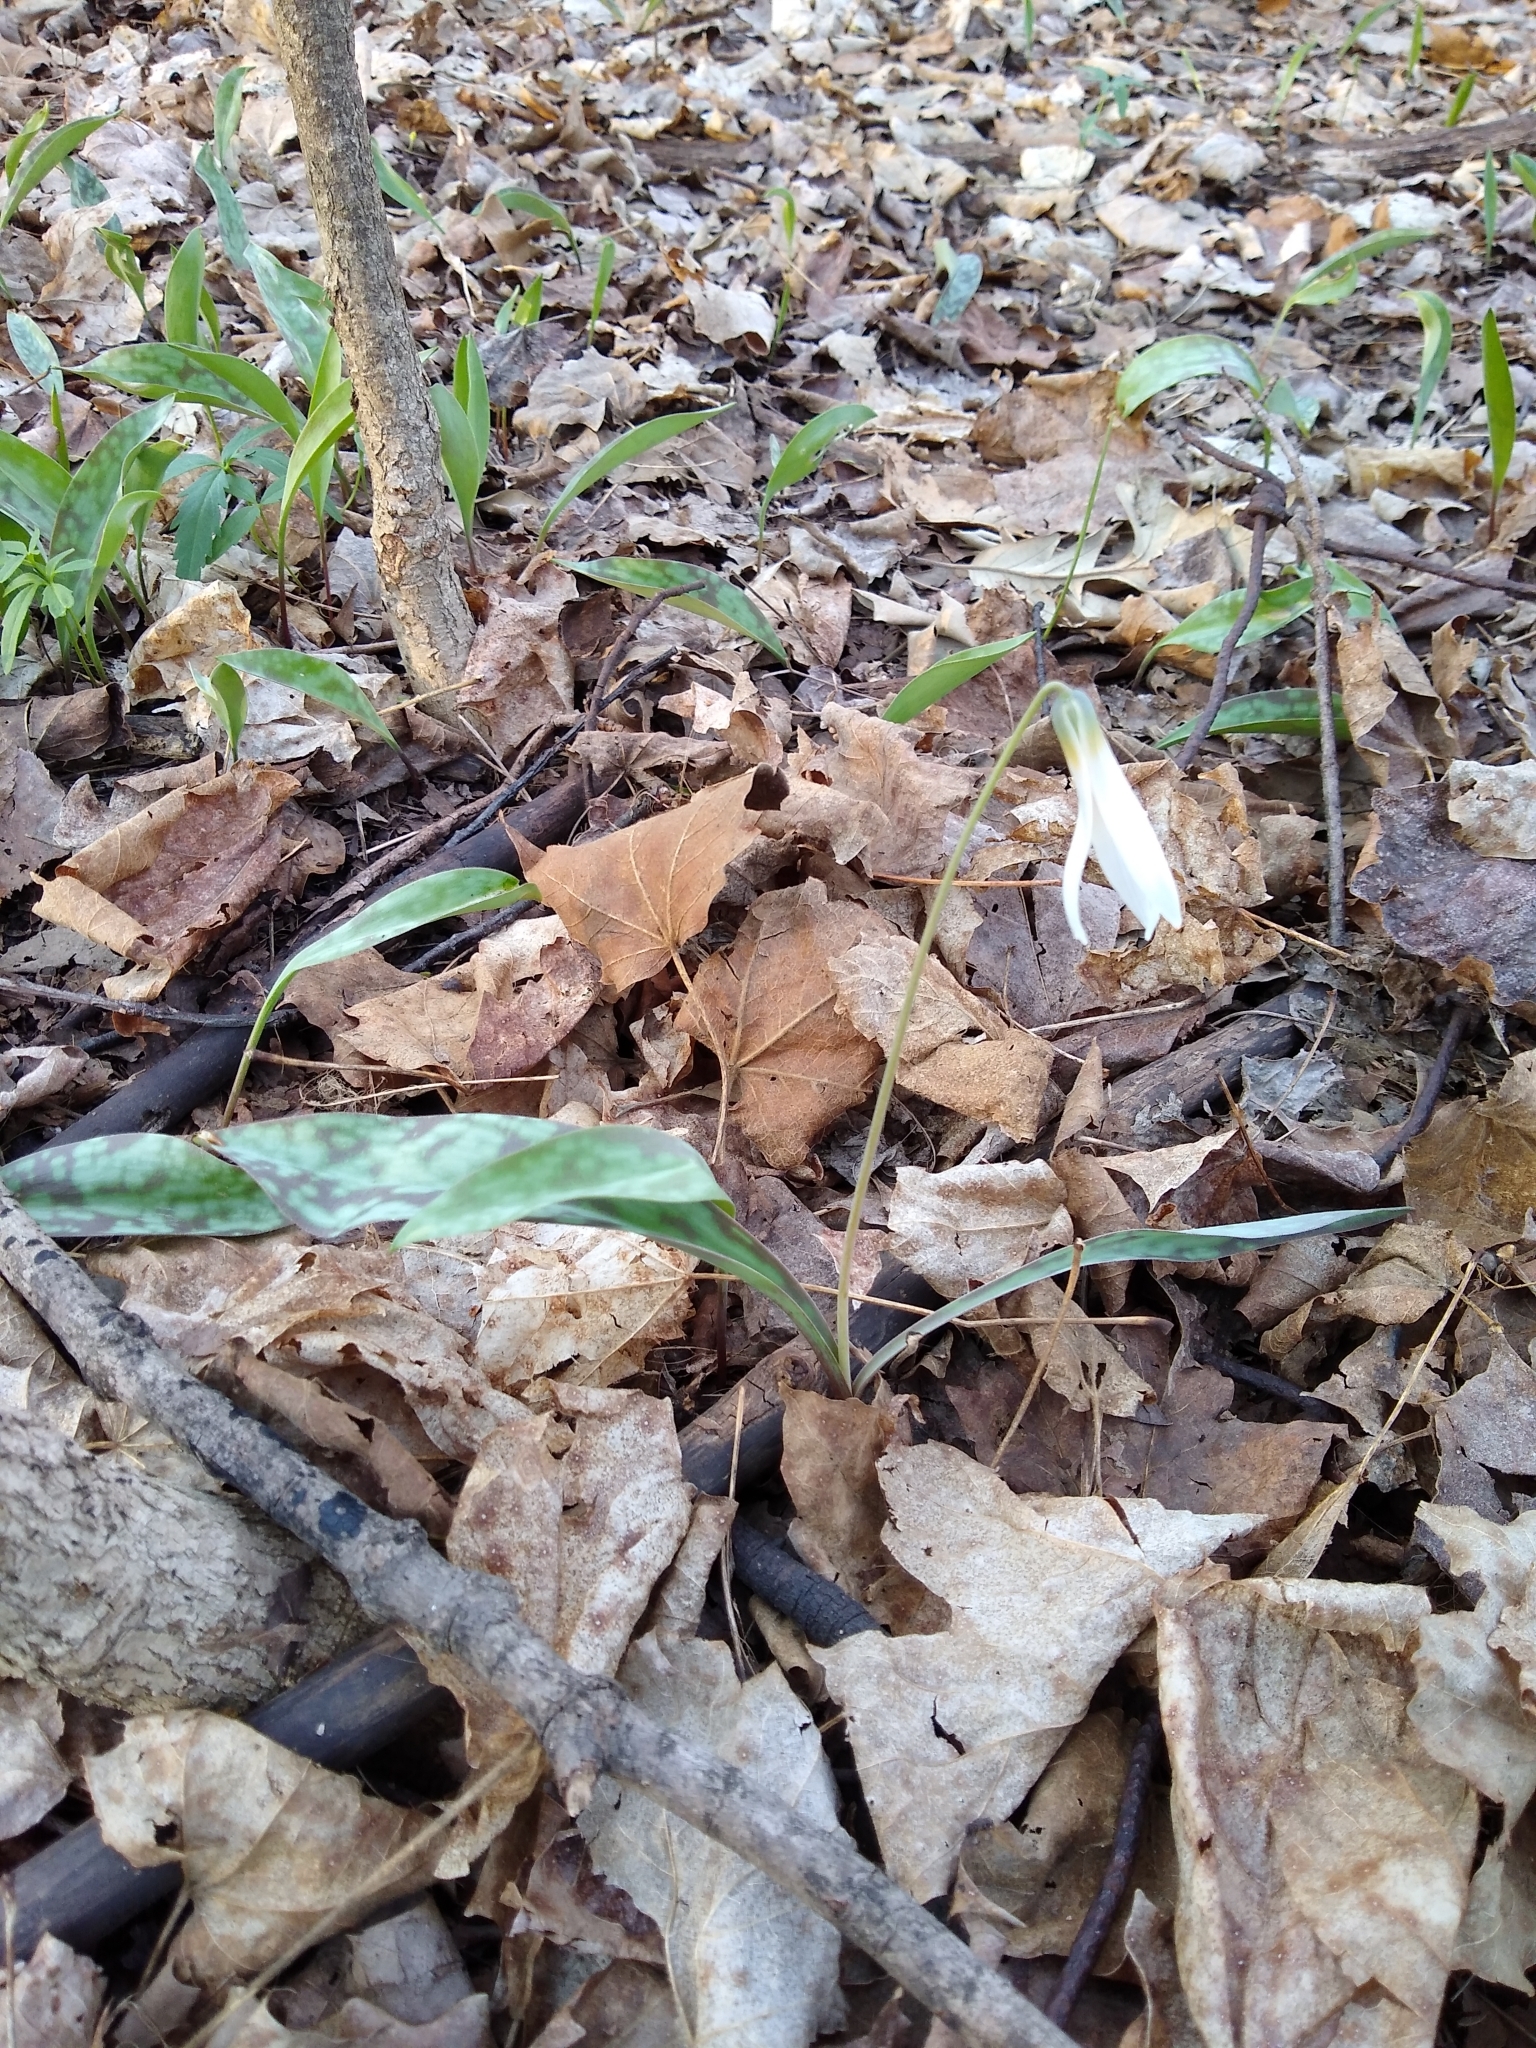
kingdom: Plantae
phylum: Tracheophyta
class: Liliopsida
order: Liliales
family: Liliaceae
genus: Erythronium
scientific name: Erythronium albidum
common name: White trout-lily
